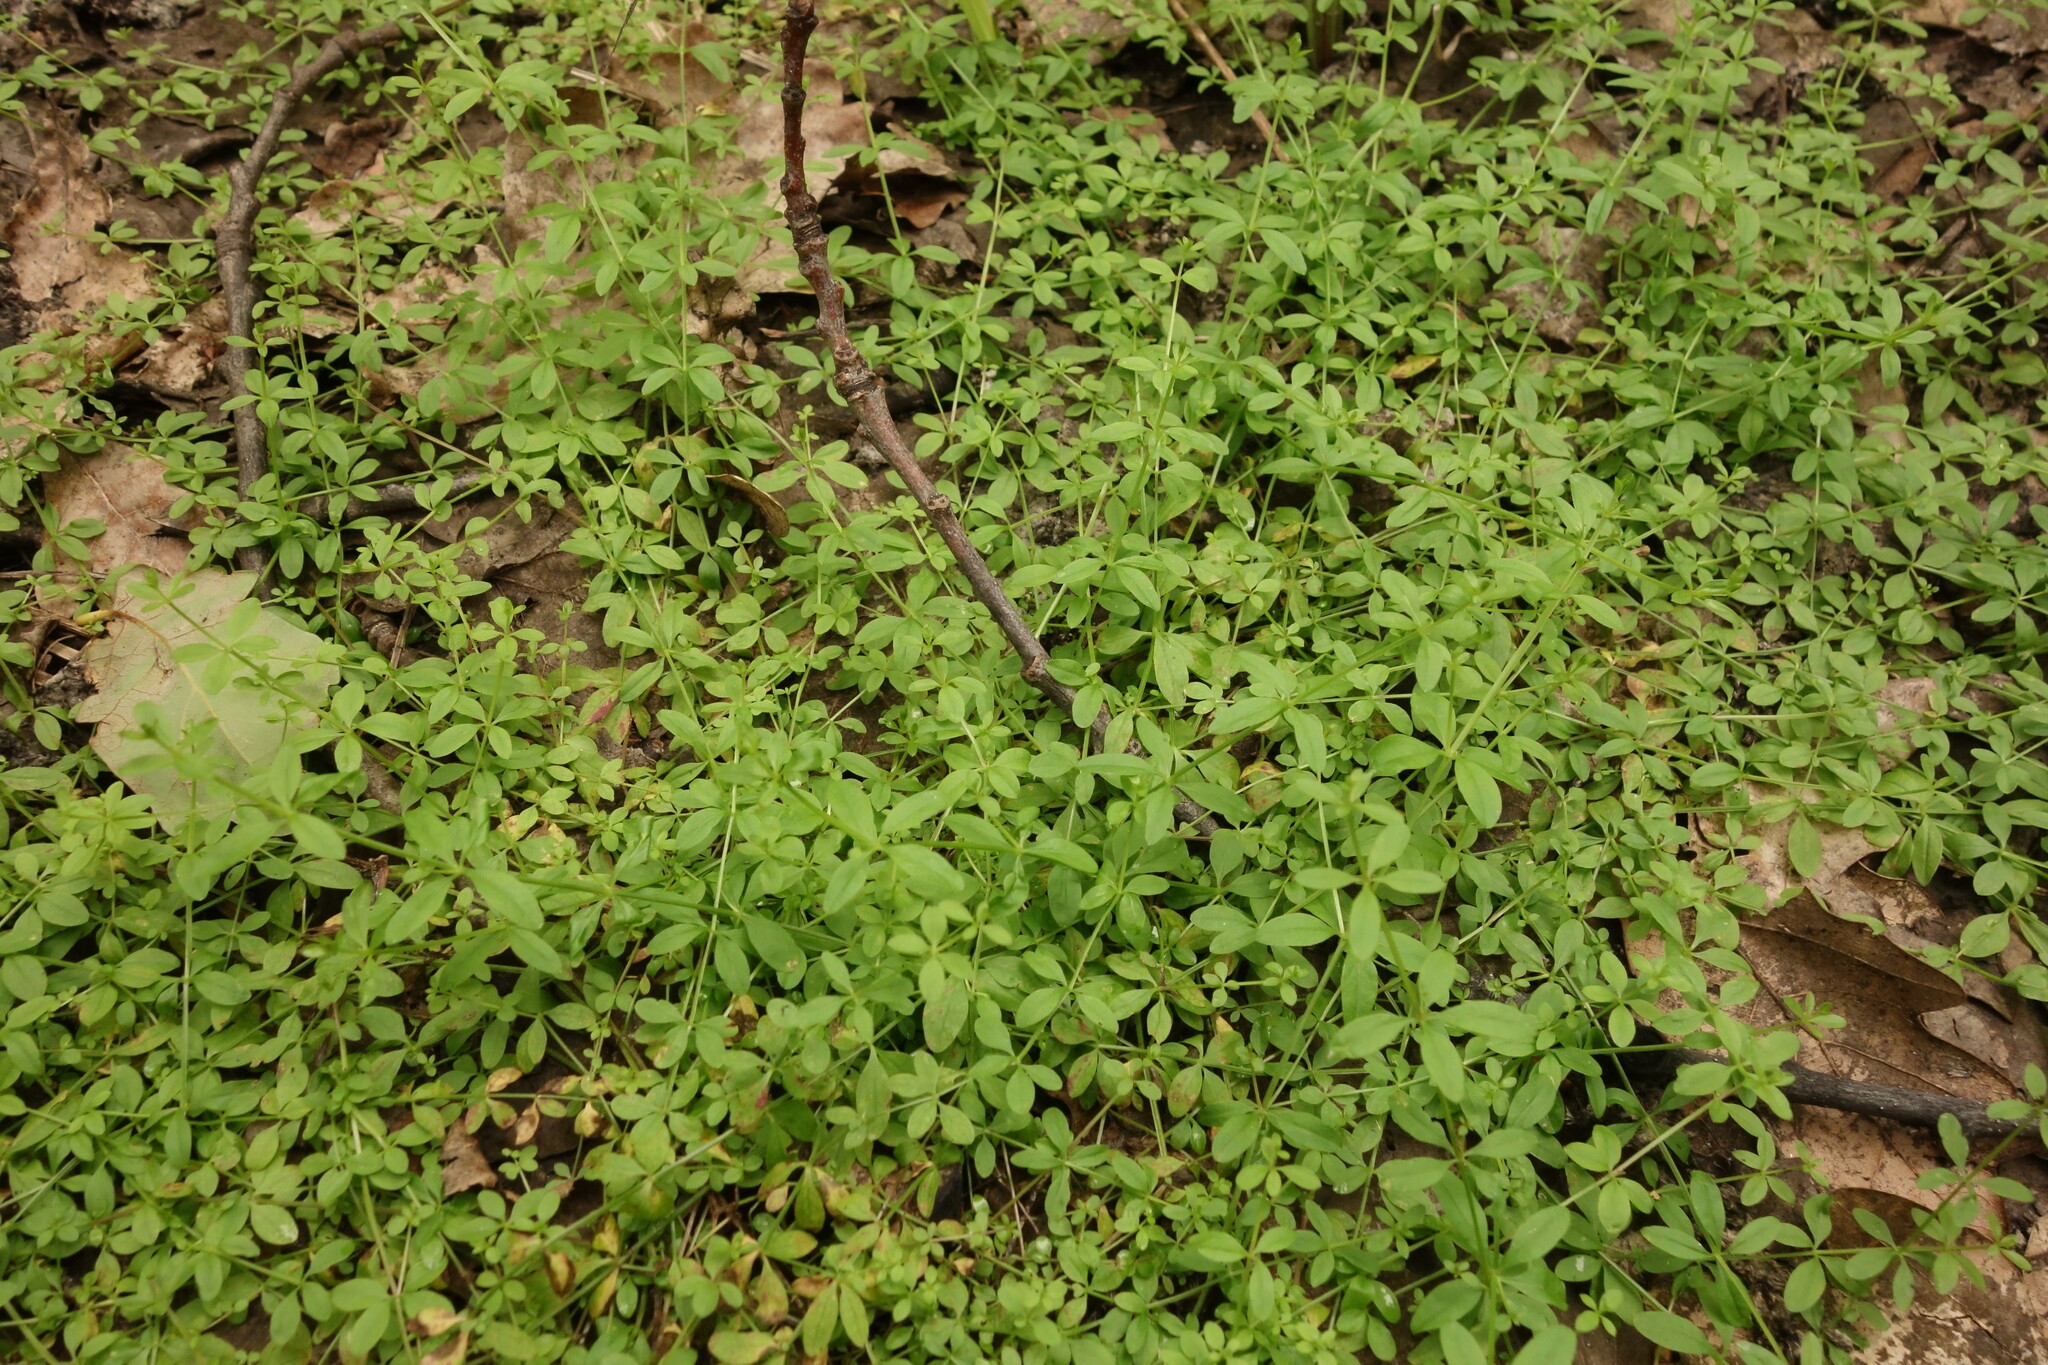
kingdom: Plantae
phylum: Tracheophyta
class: Magnoliopsida
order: Gentianales
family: Rubiaceae
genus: Galium
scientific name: Galium palustre
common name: Common marsh-bedstraw
